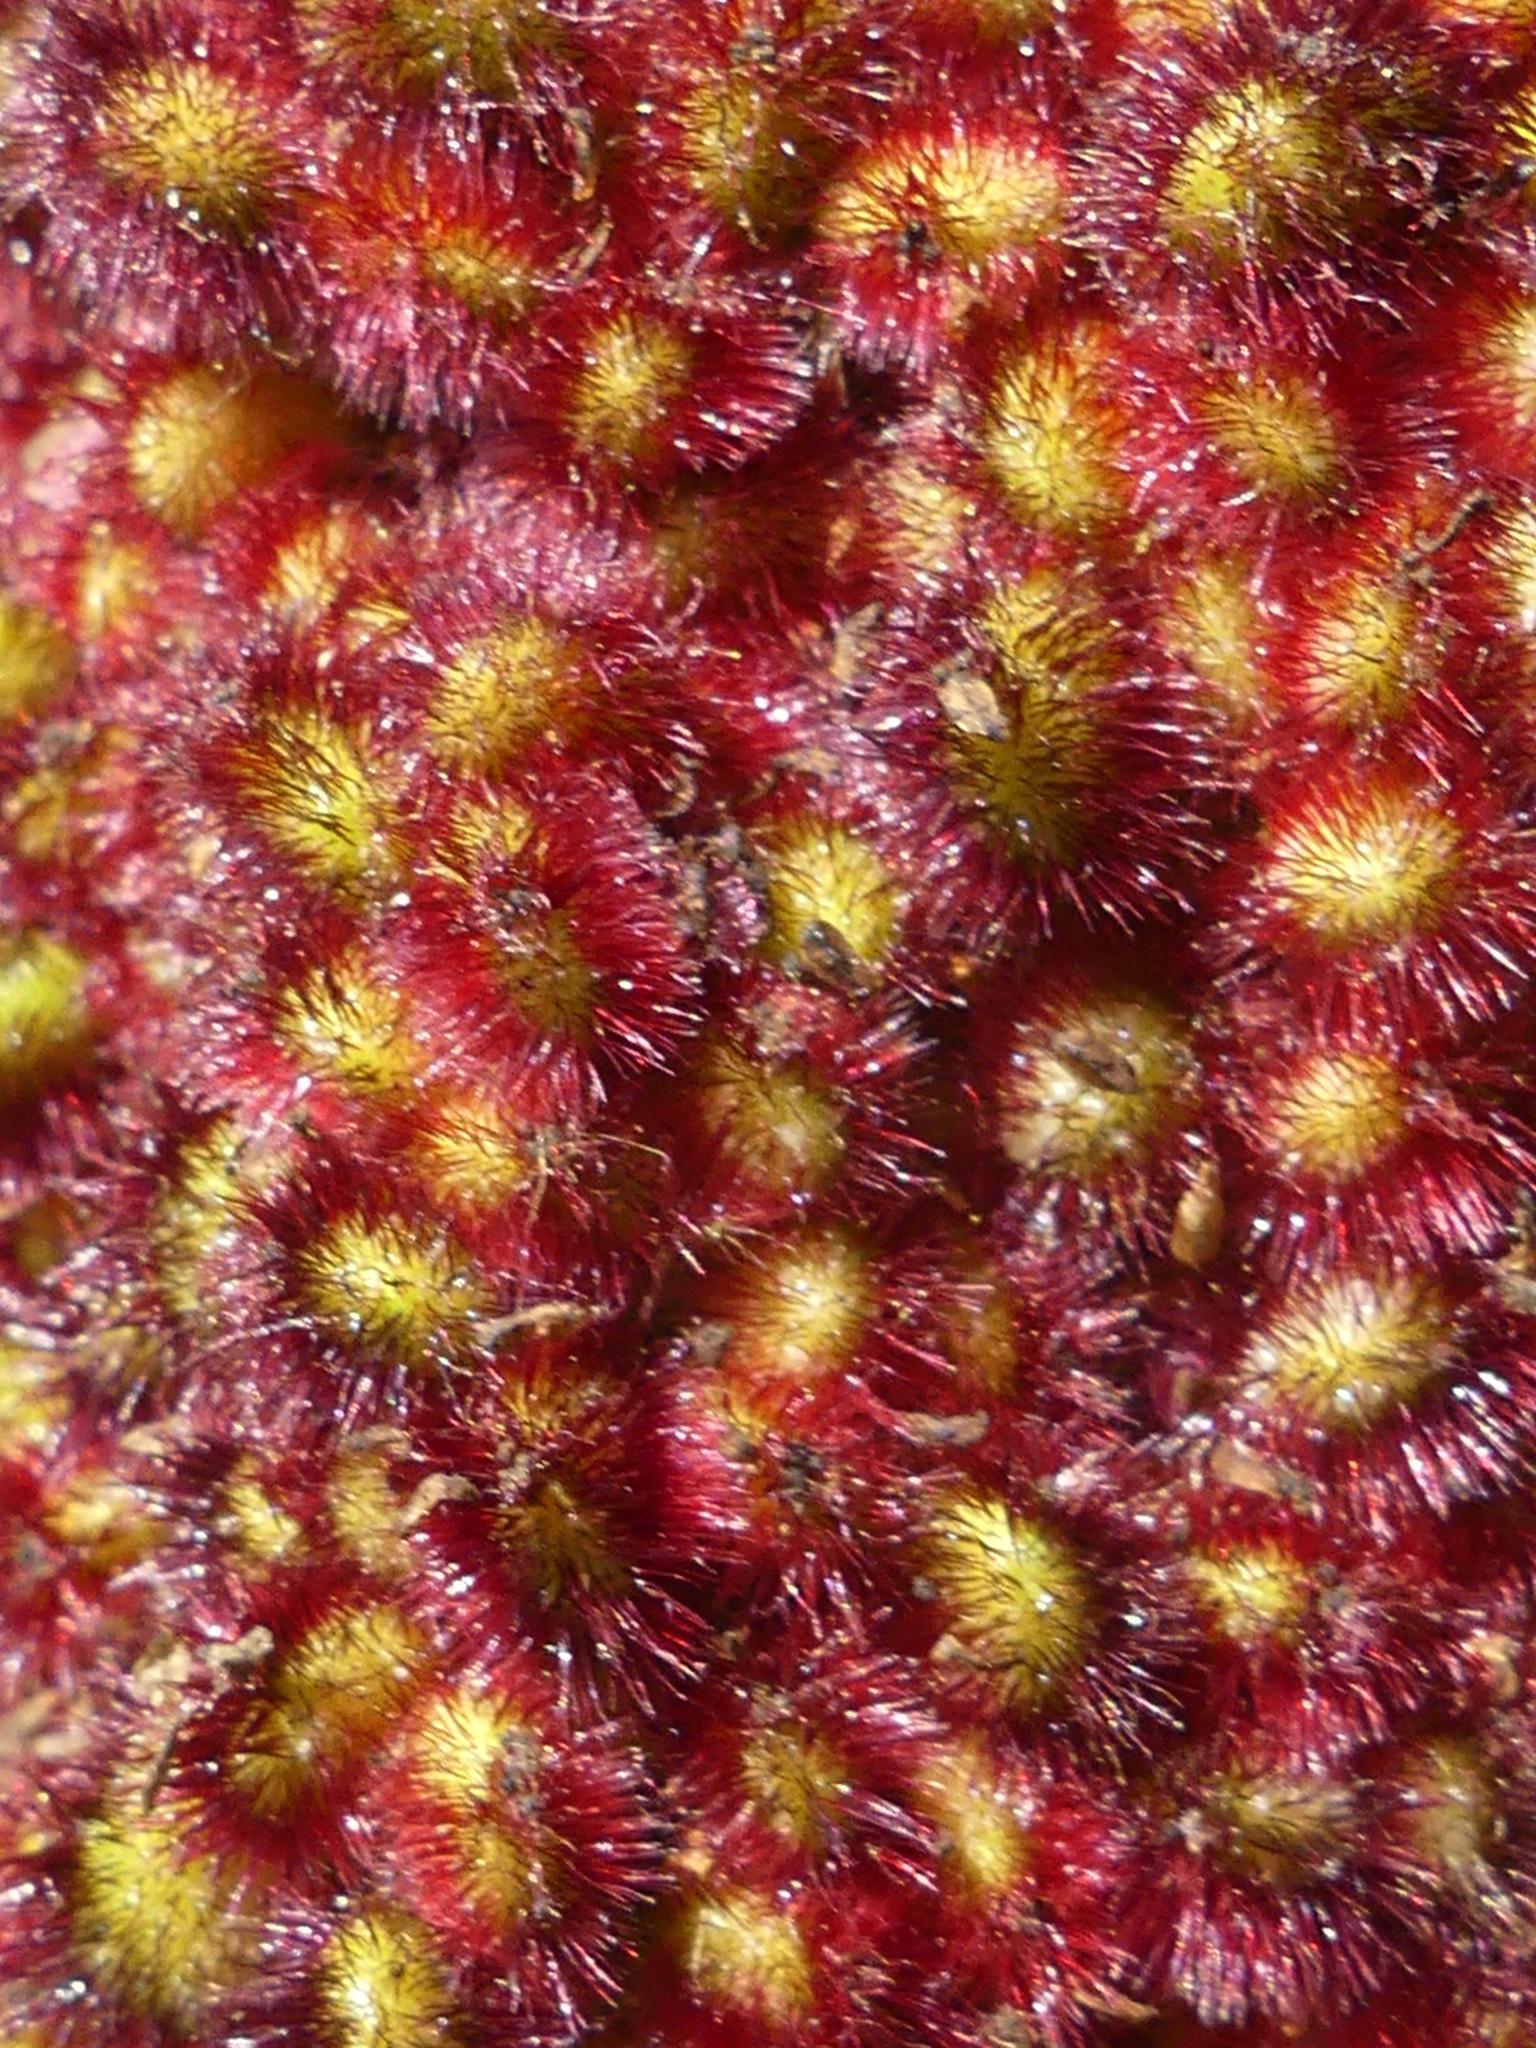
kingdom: Plantae
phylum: Tracheophyta
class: Magnoliopsida
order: Sapindales
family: Anacardiaceae
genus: Rhus
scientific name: Rhus typhina
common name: Staghorn sumac
